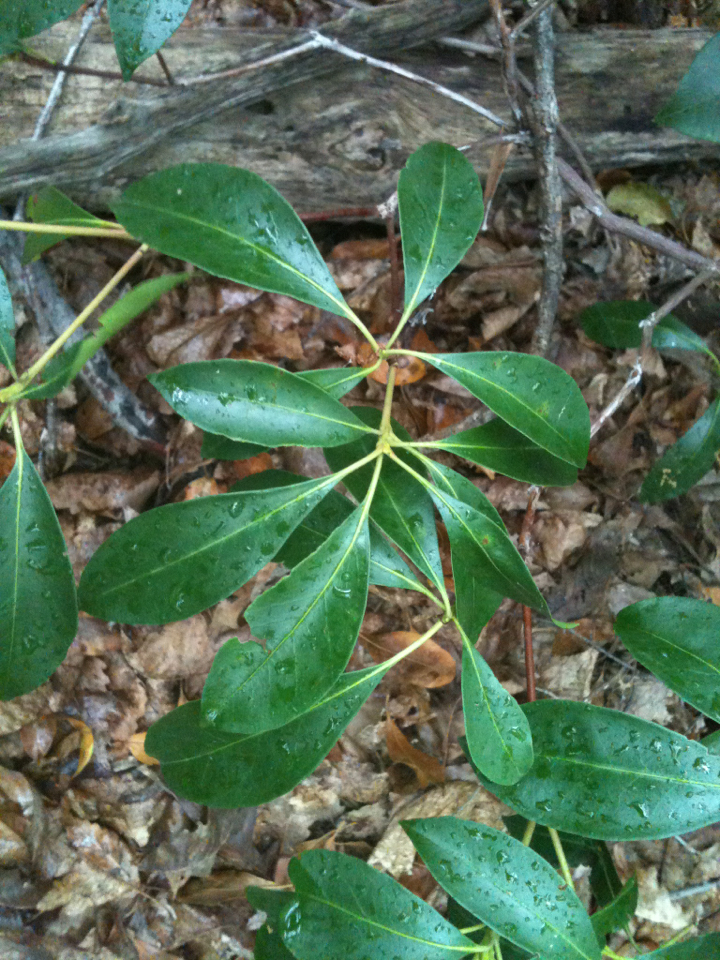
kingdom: Plantae
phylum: Tracheophyta
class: Magnoliopsida
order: Ericales
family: Ericaceae
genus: Kalmia
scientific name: Kalmia latifolia
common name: Mountain-laurel
